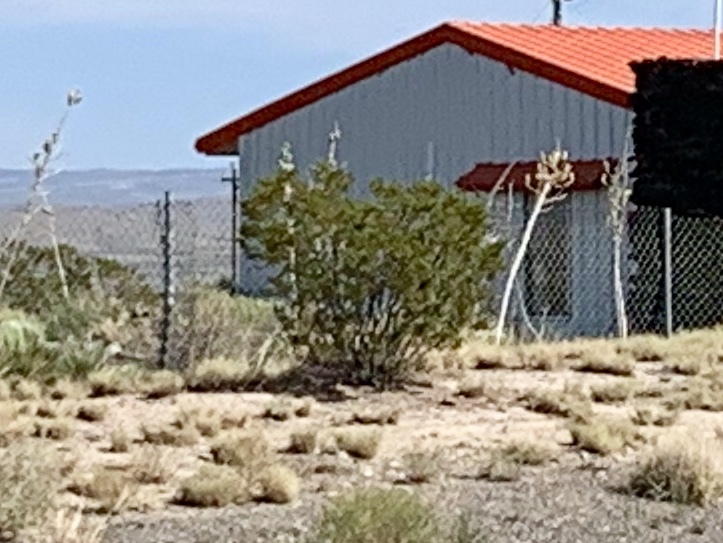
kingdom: Plantae
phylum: Tracheophyta
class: Magnoliopsida
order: Zygophyllales
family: Zygophyllaceae
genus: Larrea
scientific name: Larrea tridentata
